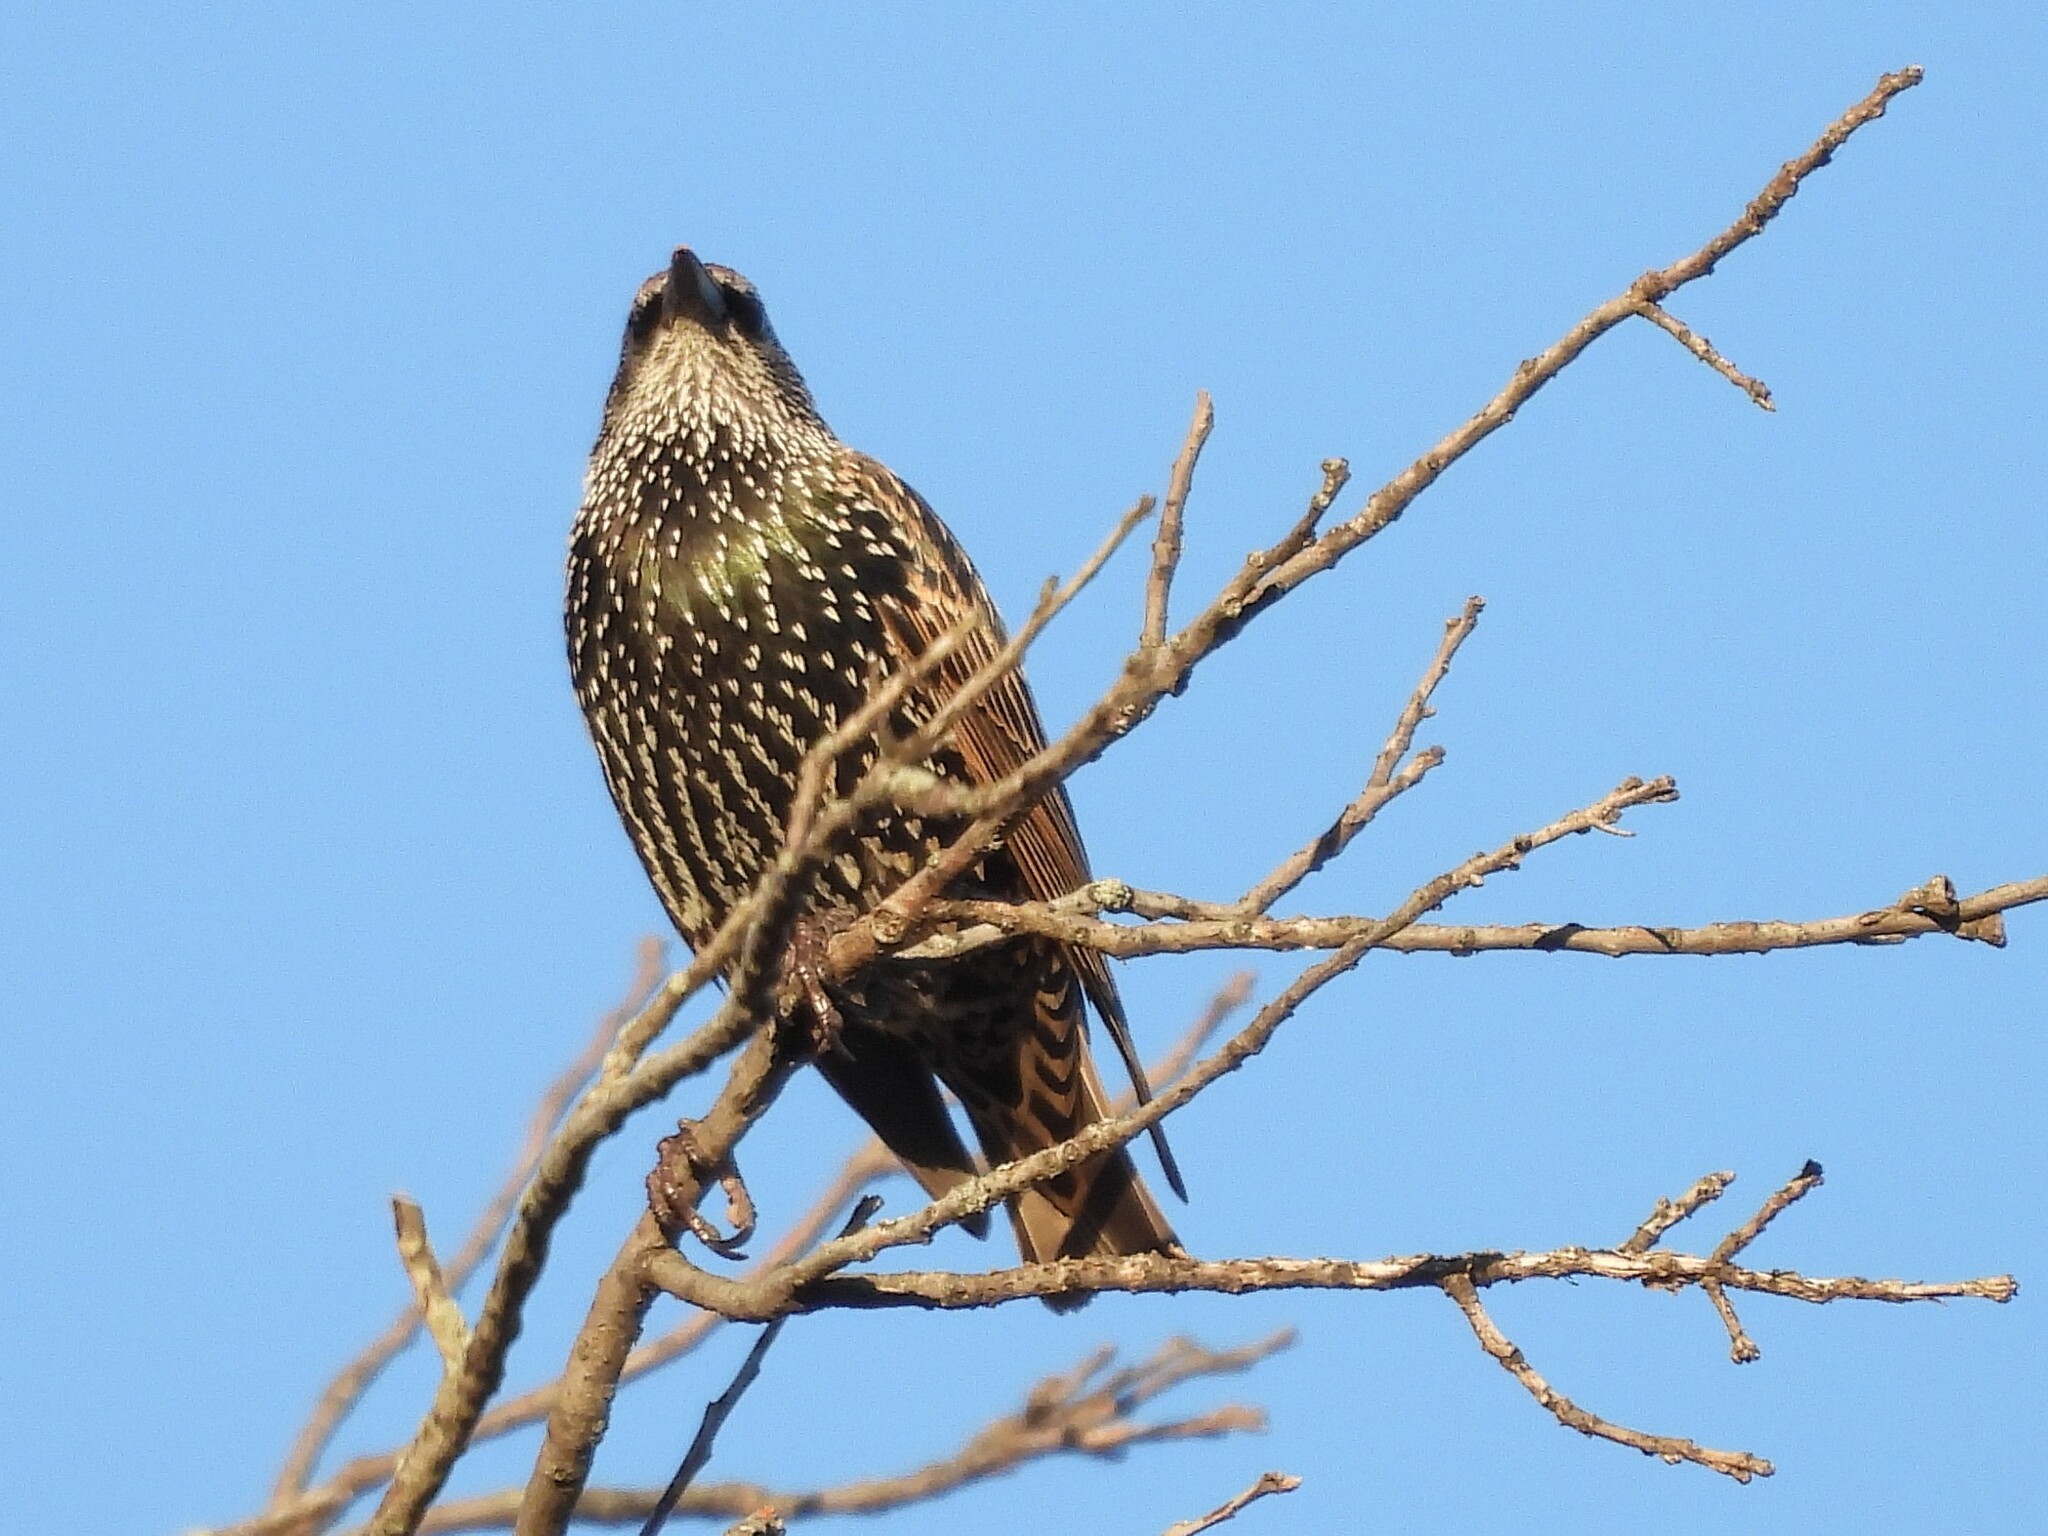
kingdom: Animalia
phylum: Chordata
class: Aves
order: Passeriformes
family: Sturnidae
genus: Sturnus
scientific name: Sturnus vulgaris
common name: Common starling
